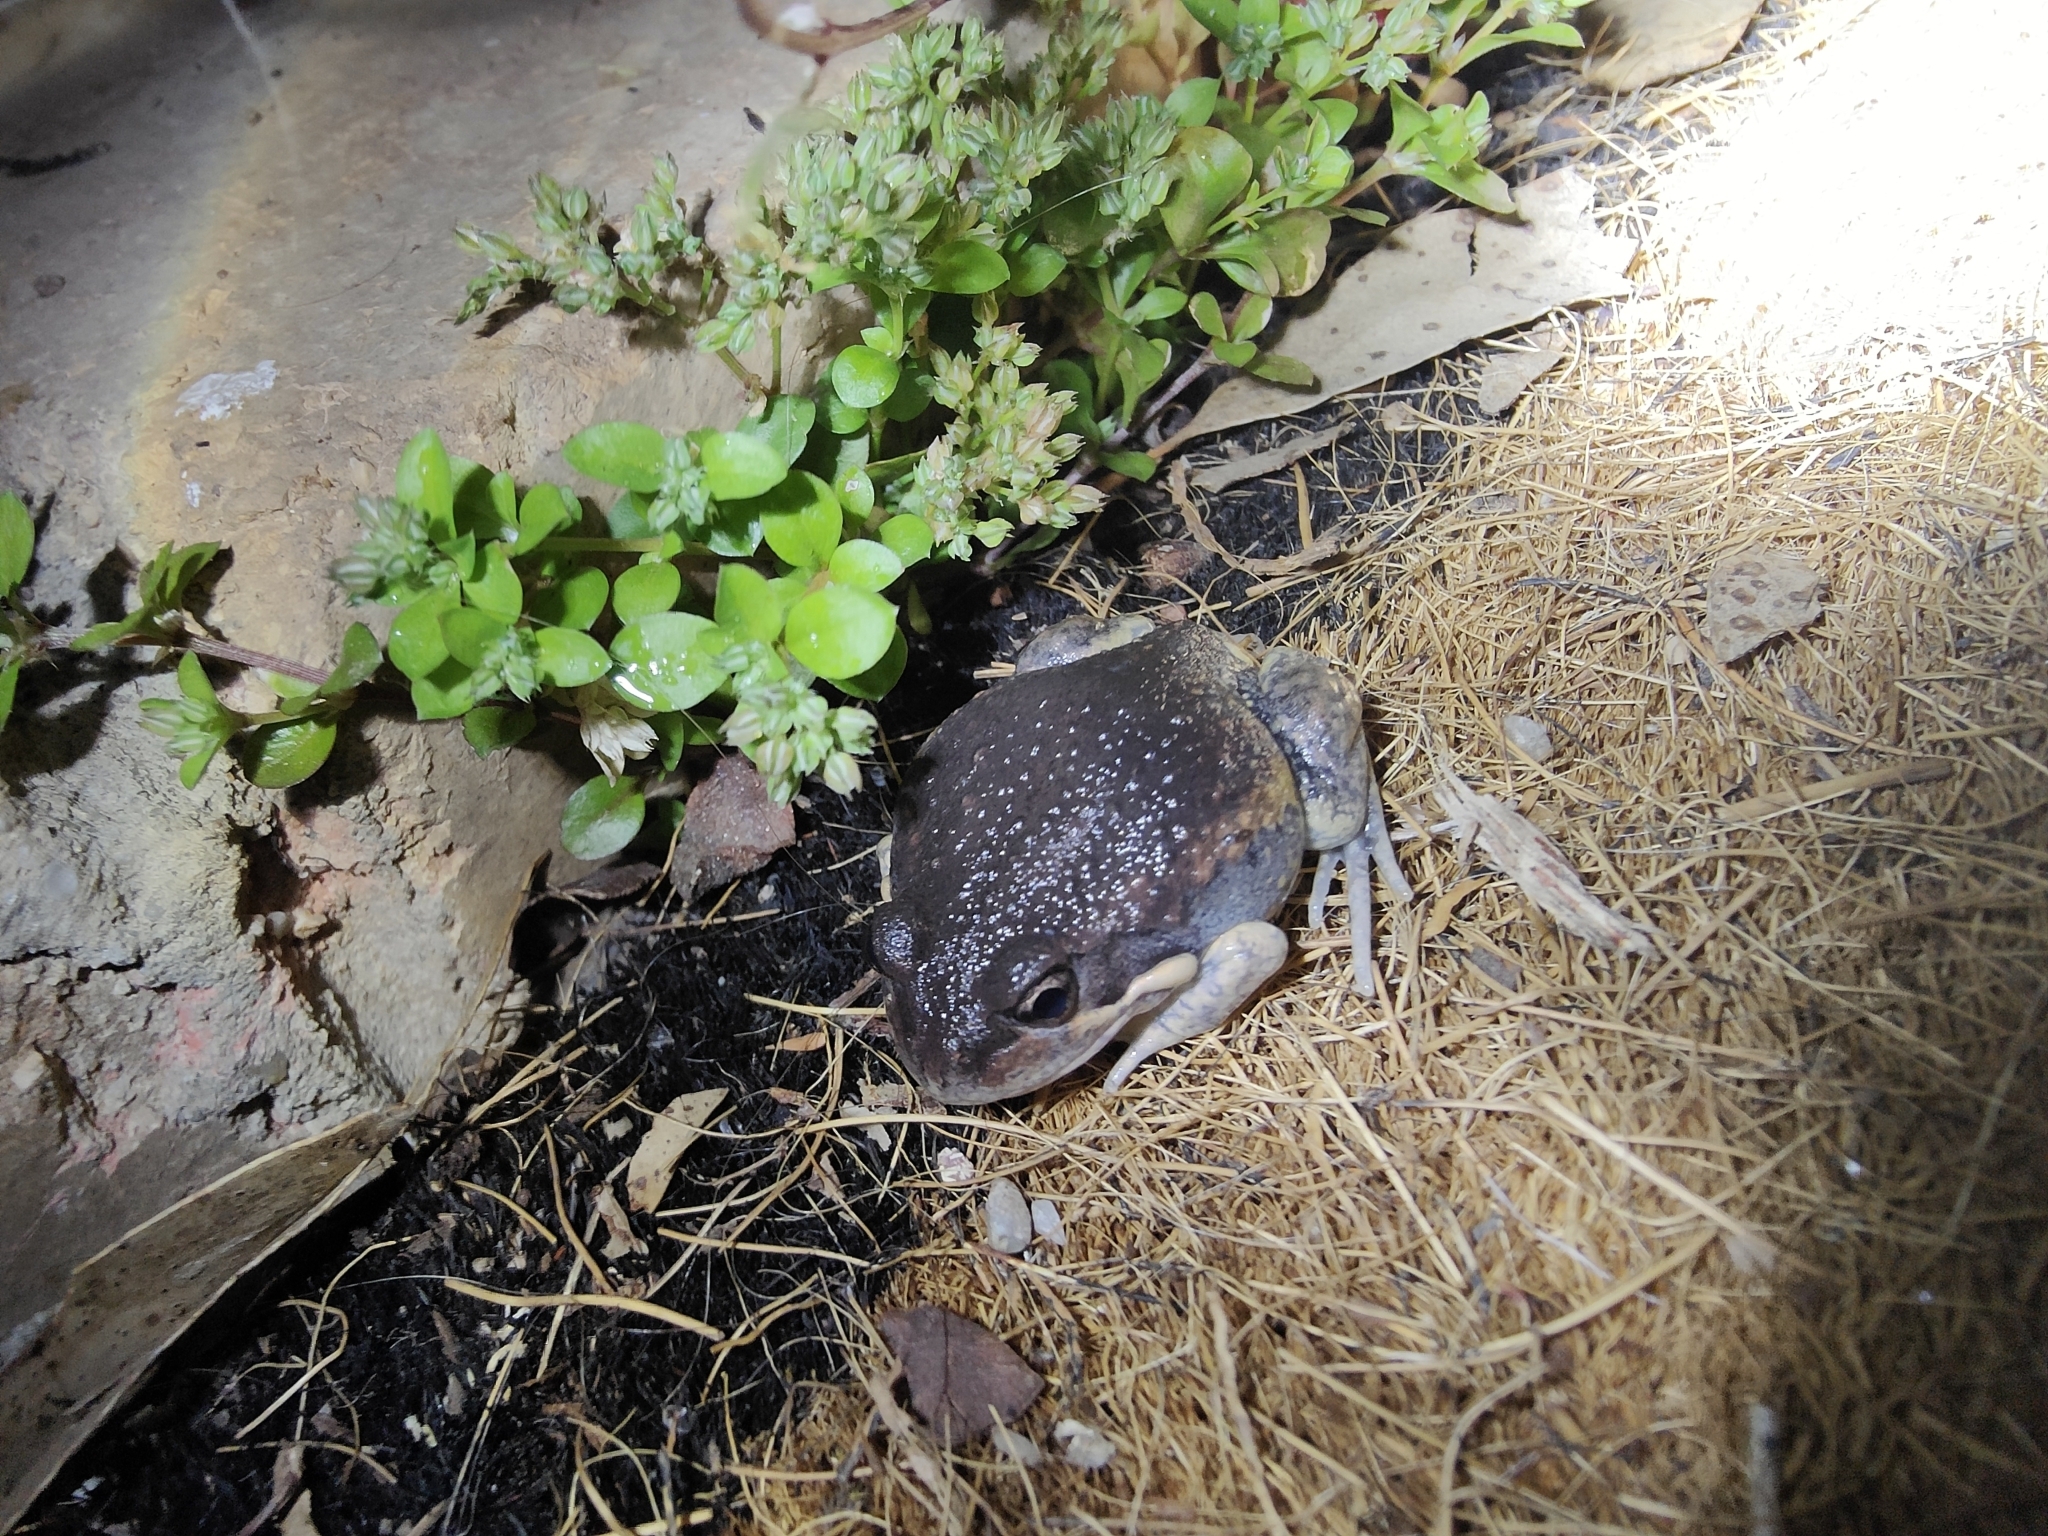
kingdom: Animalia
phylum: Chordata
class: Amphibia
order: Anura
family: Limnodynastidae
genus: Limnodynastes
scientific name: Limnodynastes dumerilii
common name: Banjo frog
